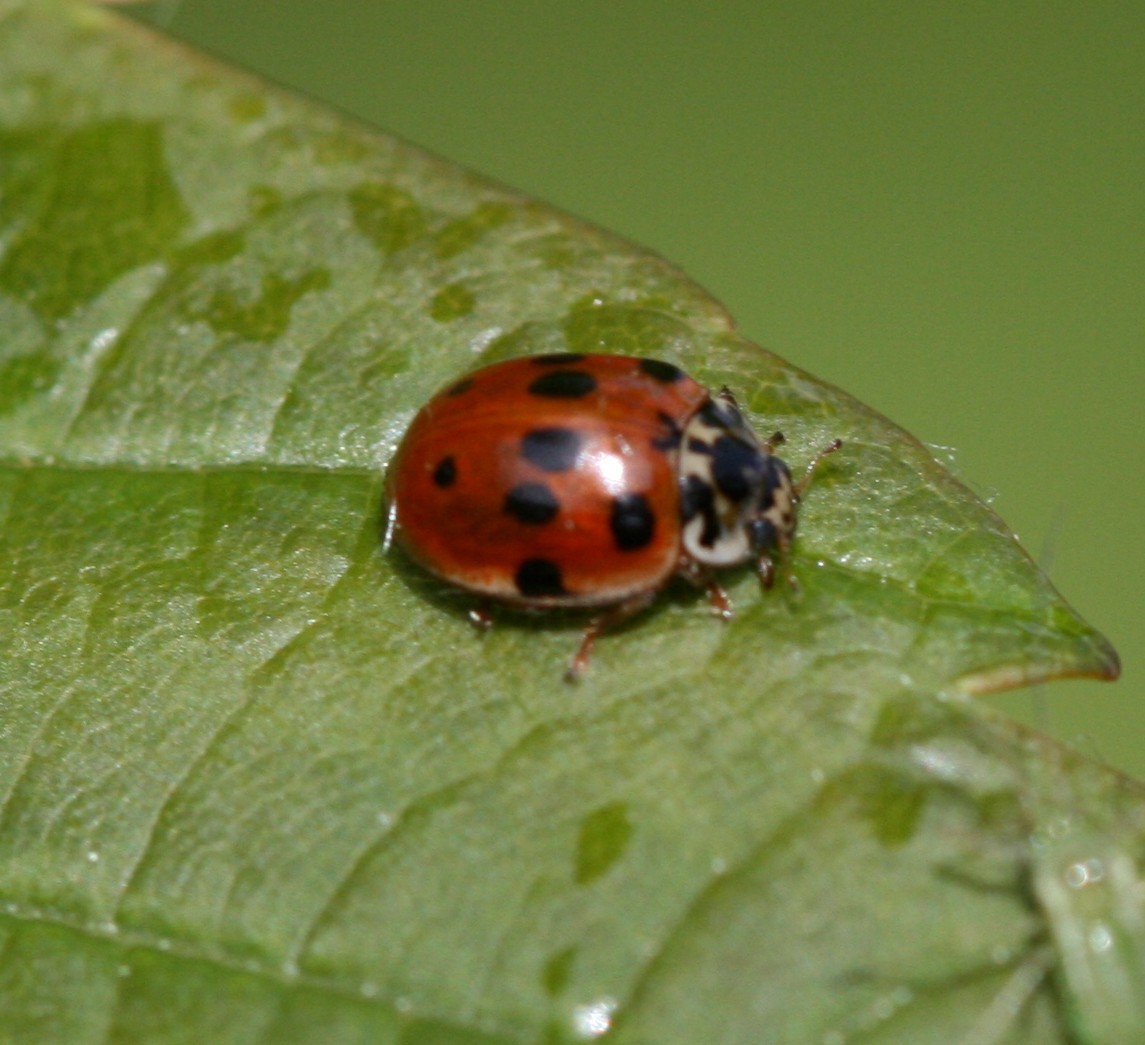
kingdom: Animalia
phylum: Arthropoda
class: Insecta
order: Coleoptera
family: Coccinellidae
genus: Adalia
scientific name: Adalia decempunctata
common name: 10-spot ladybird
